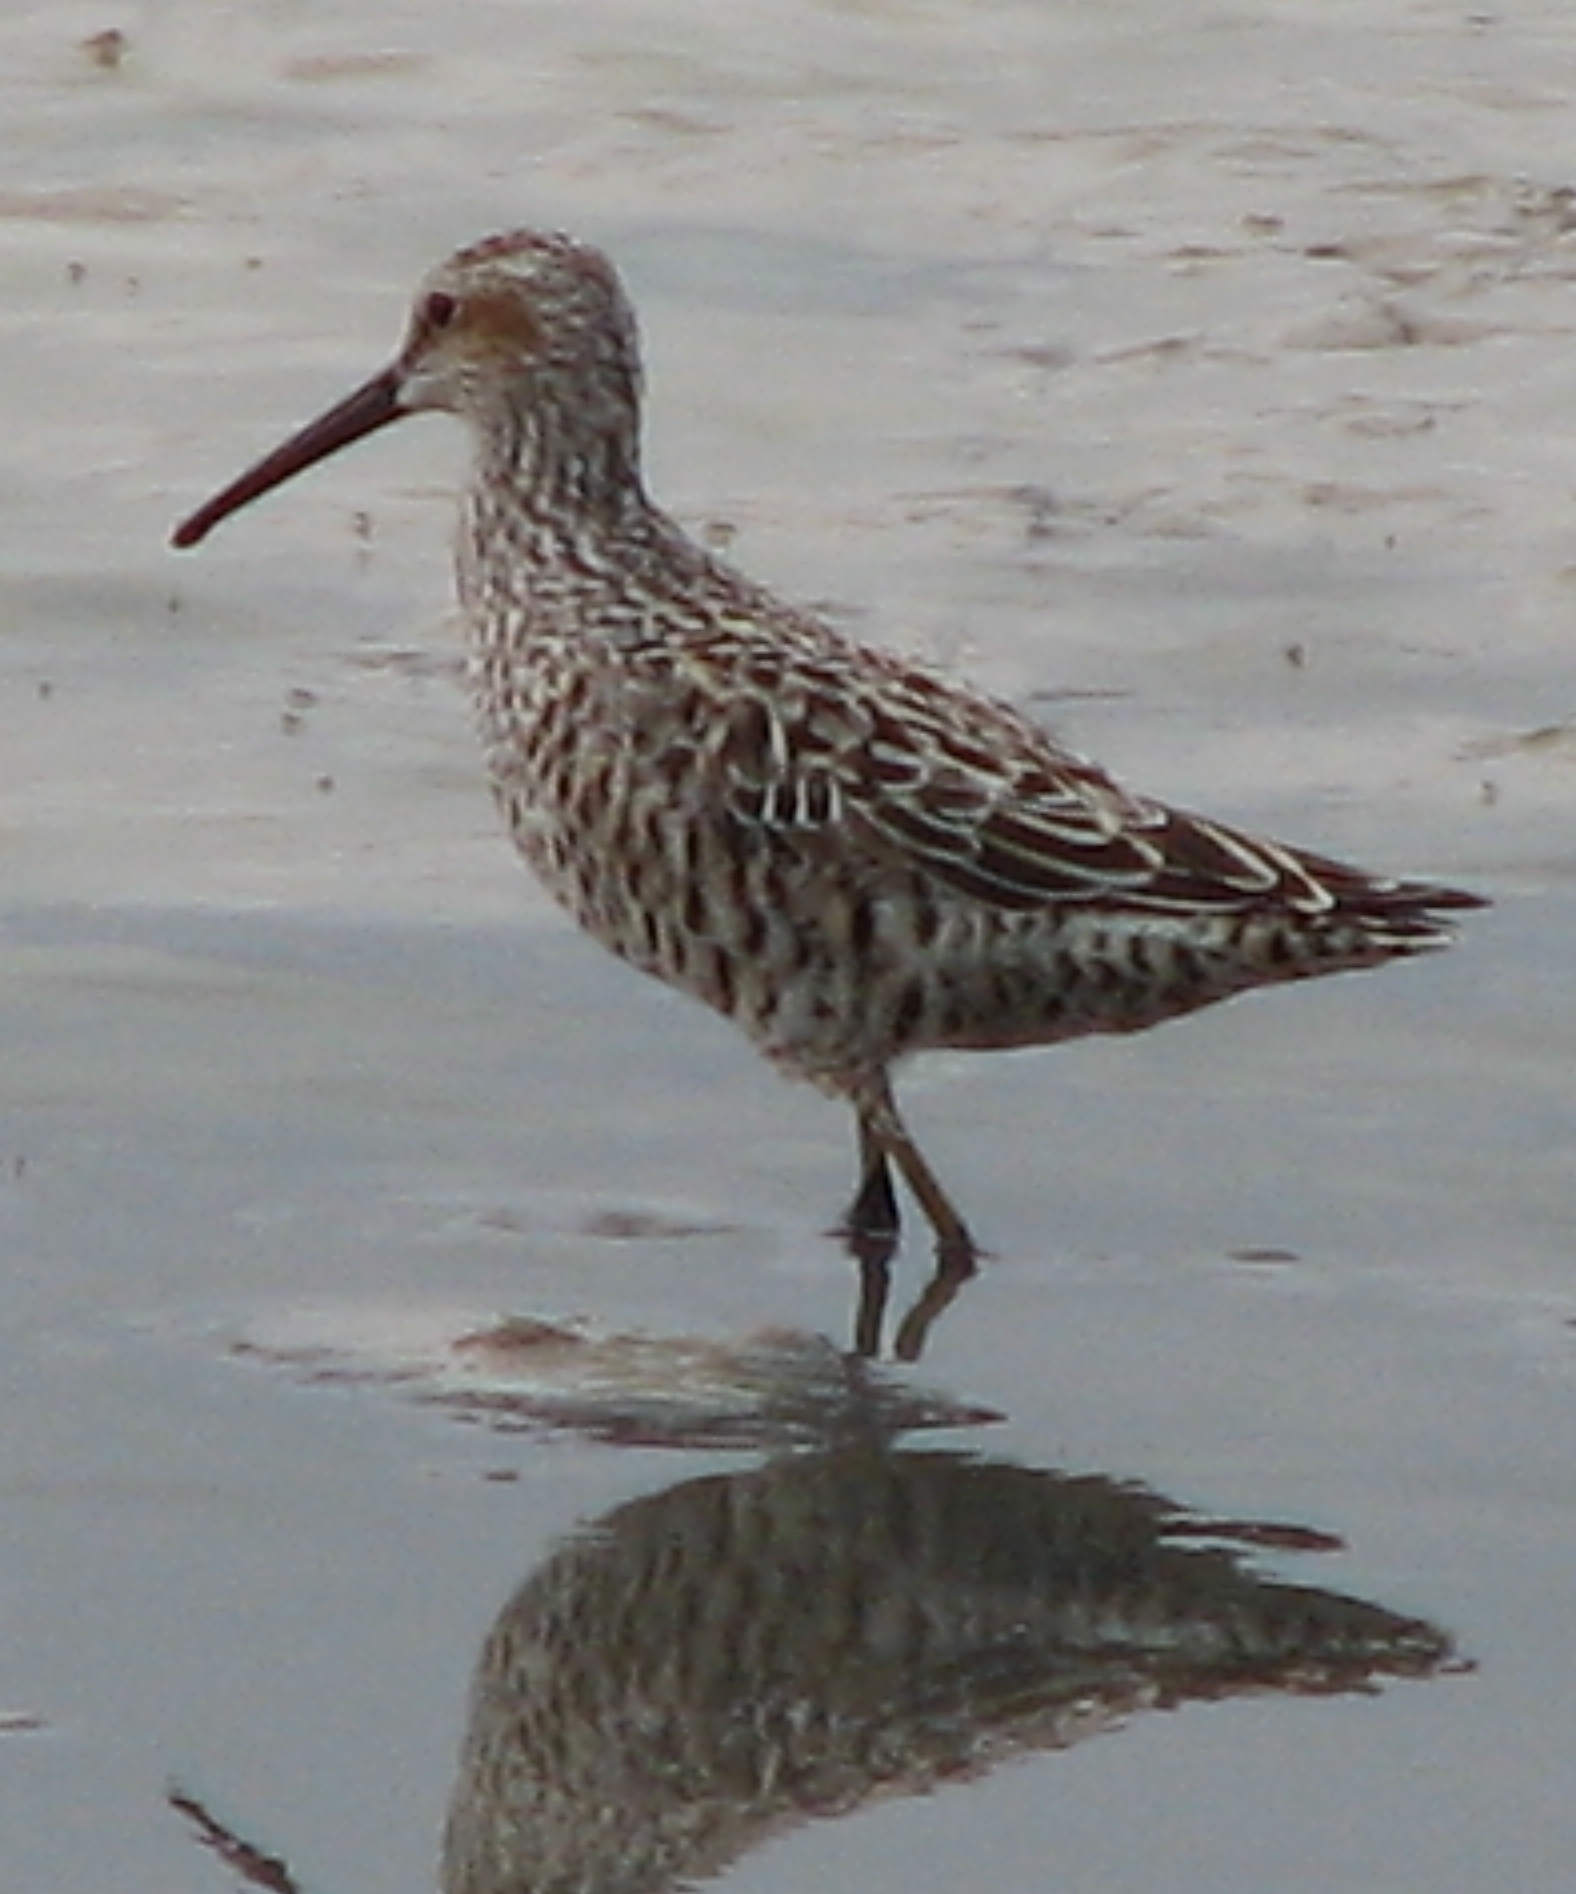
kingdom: Animalia
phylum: Chordata
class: Aves
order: Charadriiformes
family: Scolopacidae
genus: Calidris
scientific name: Calidris himantopus
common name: Stilt sandpiper
